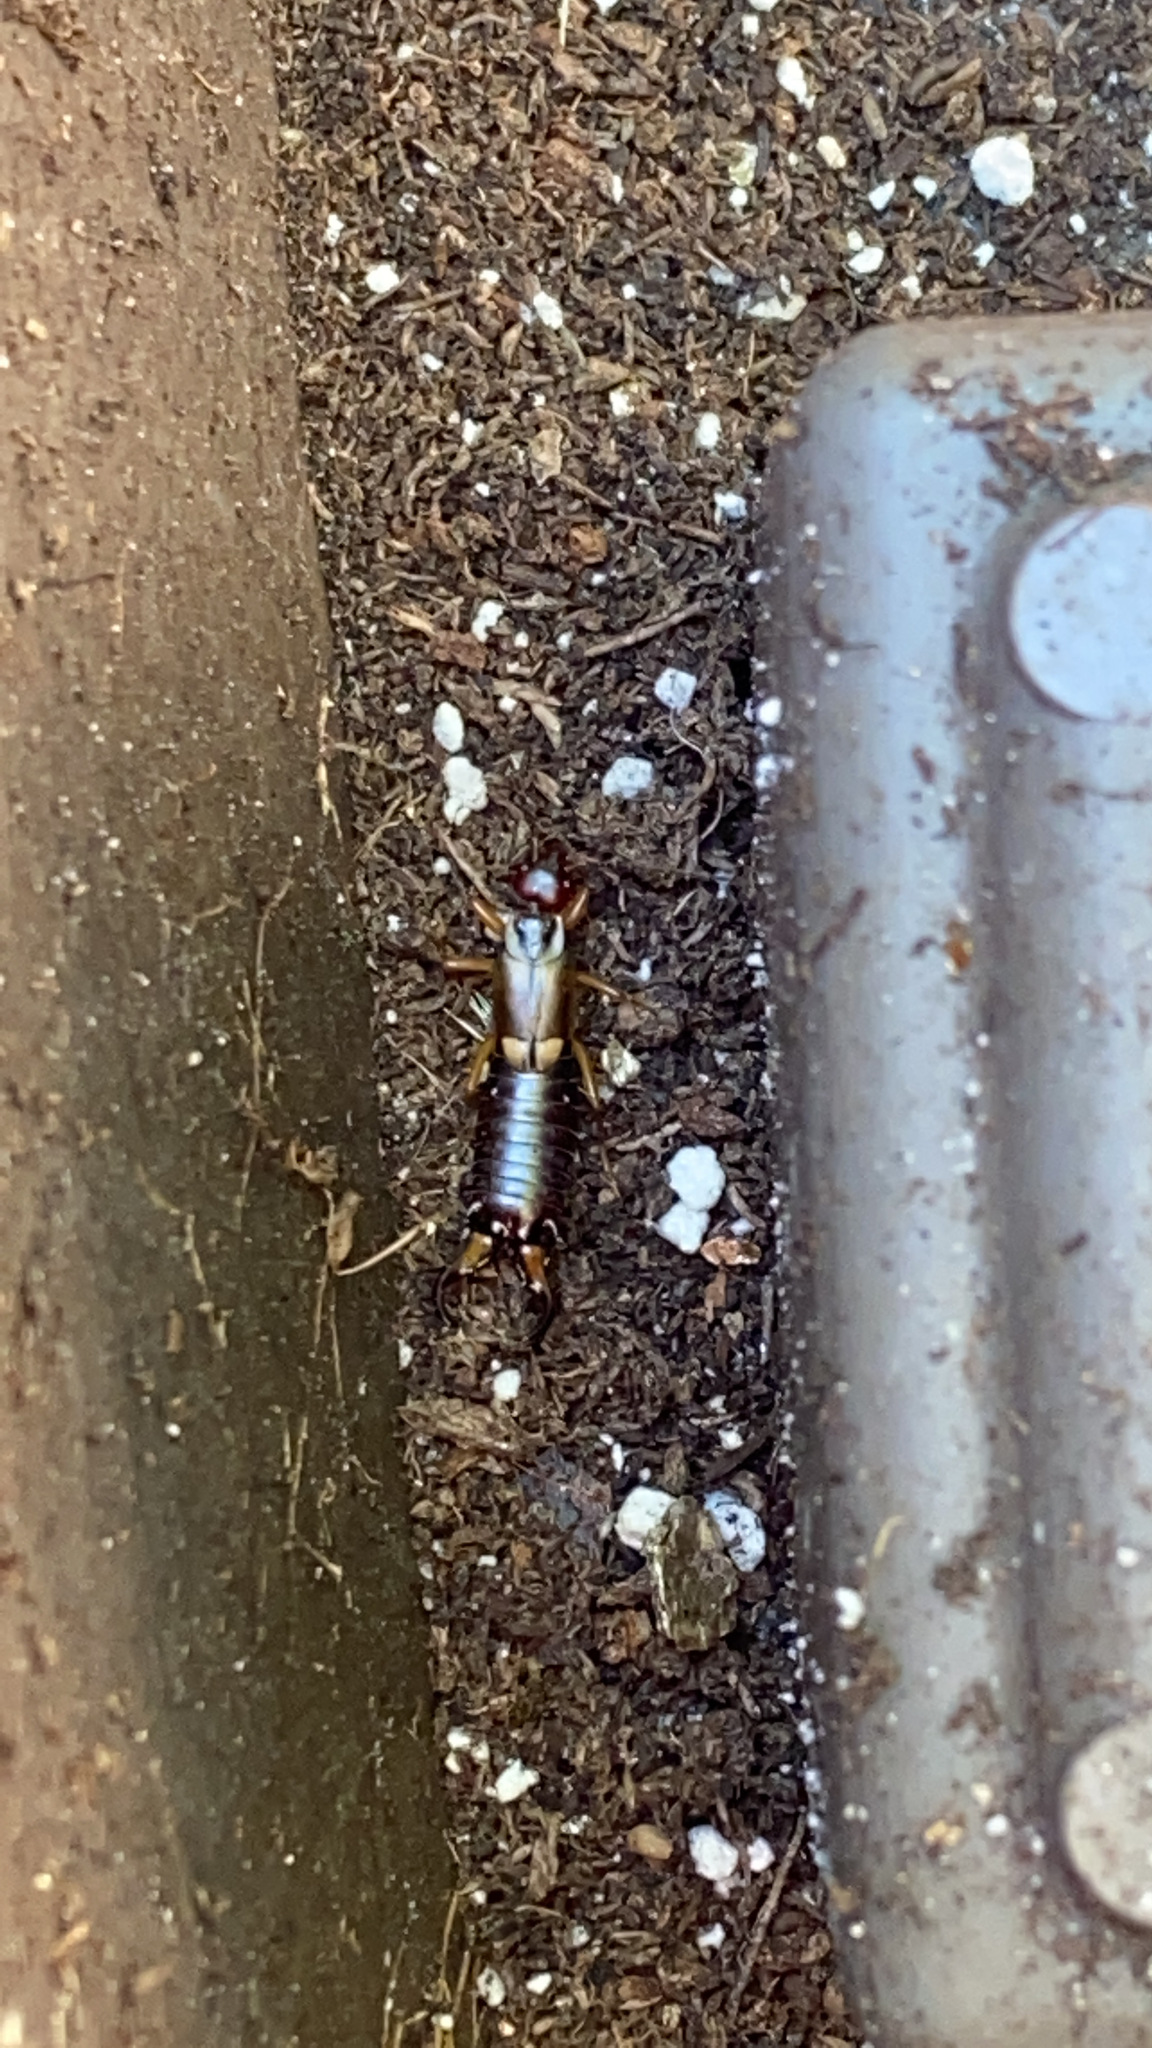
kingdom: Animalia
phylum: Arthropoda
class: Insecta
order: Dermaptera
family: Forficulidae
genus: Forficula
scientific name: Forficula
